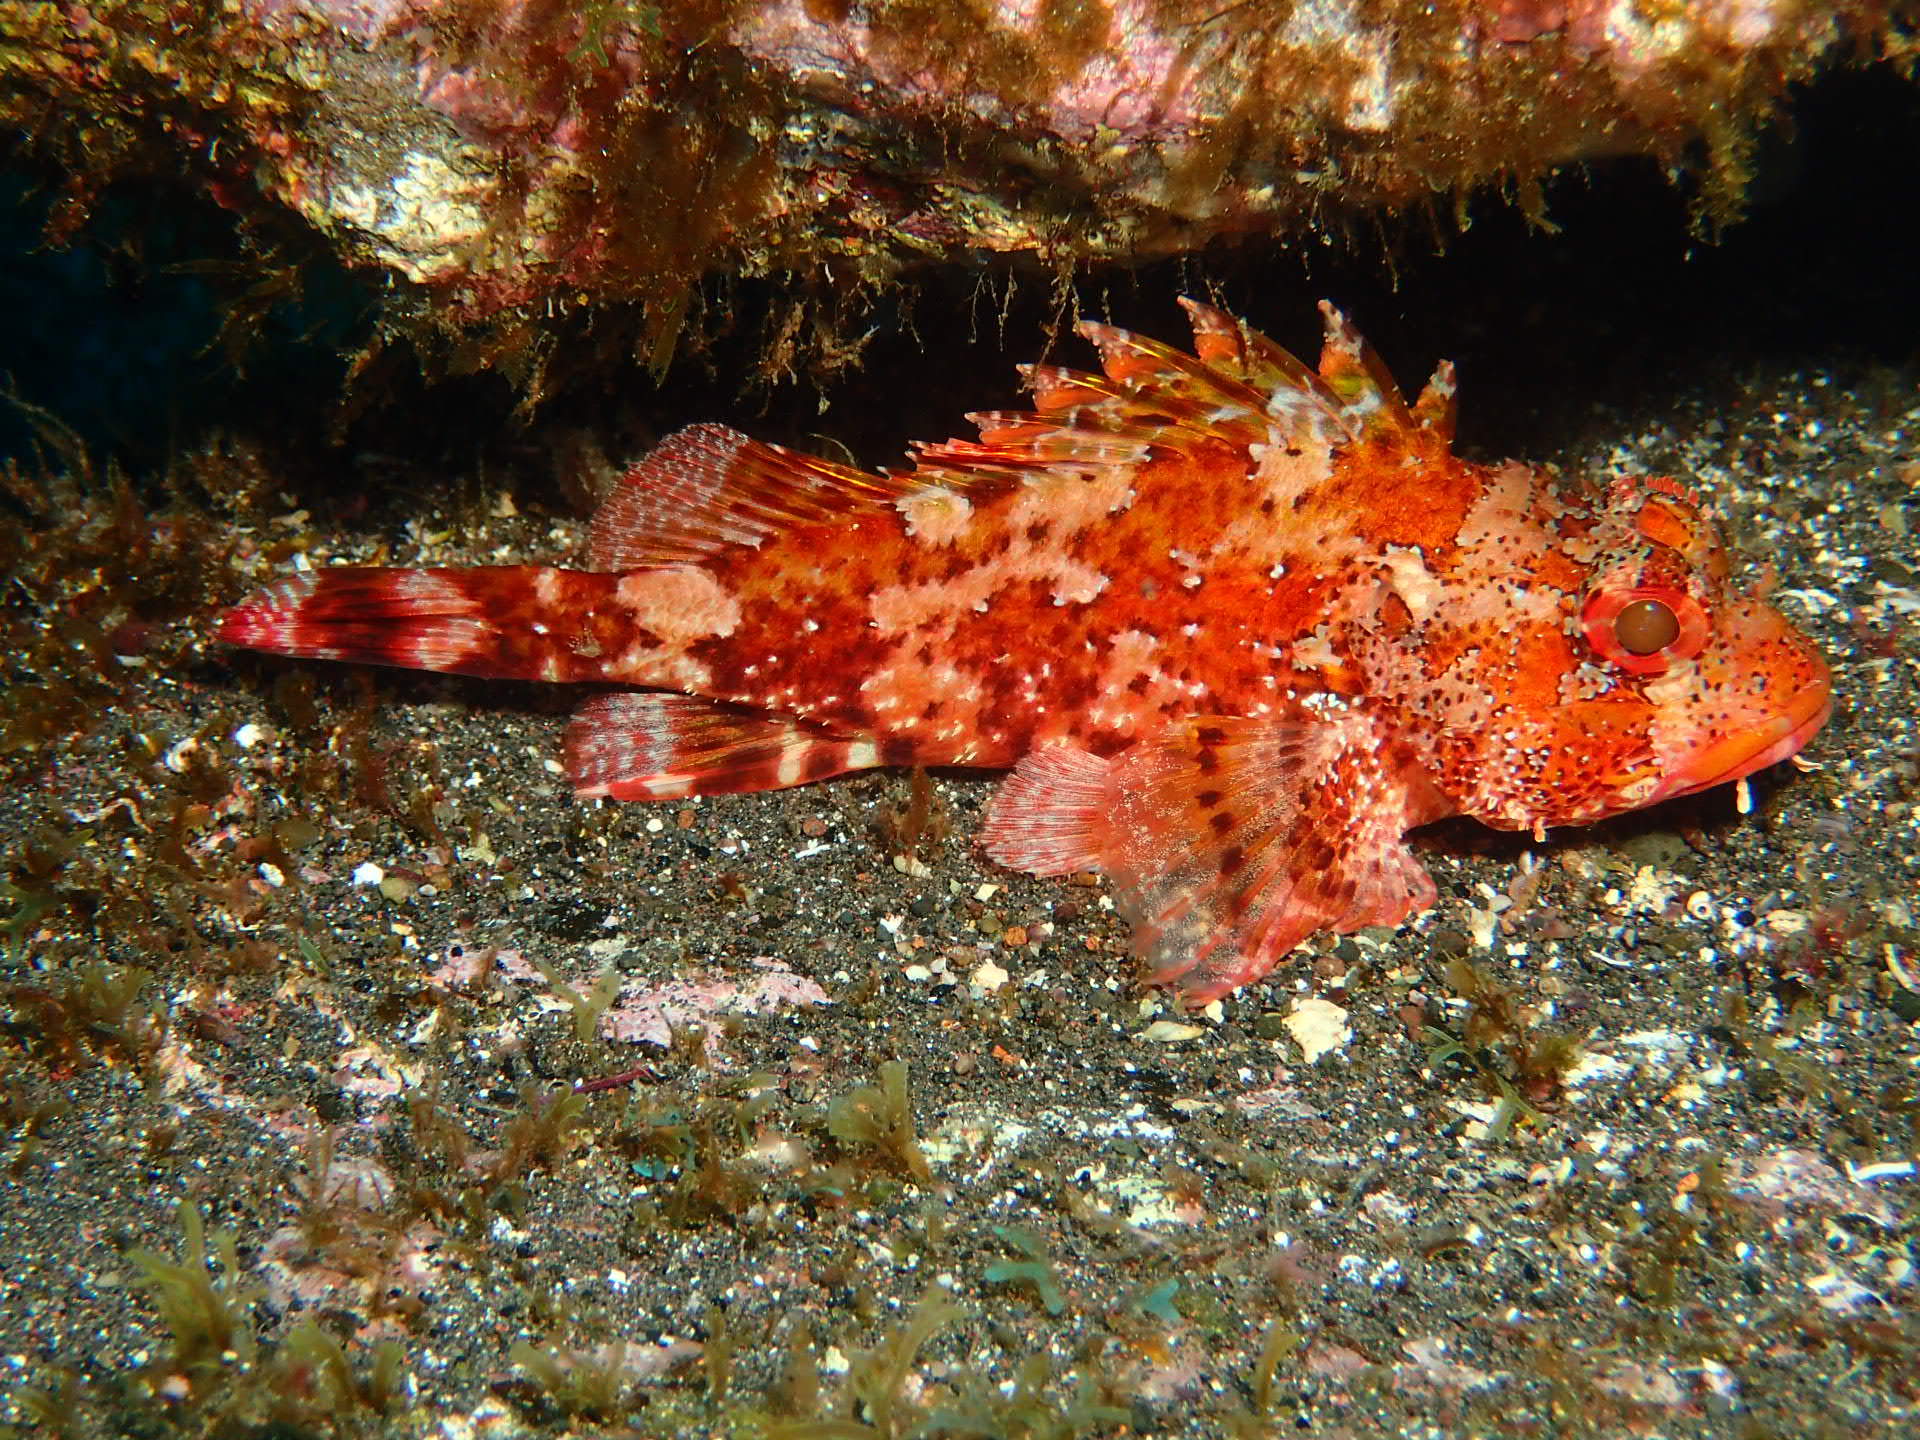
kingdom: Animalia
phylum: Chordata
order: Scorpaeniformes
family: Scorpaenidae
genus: Scorpaena
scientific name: Scorpaena maderensis
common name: Madeira rockfish
